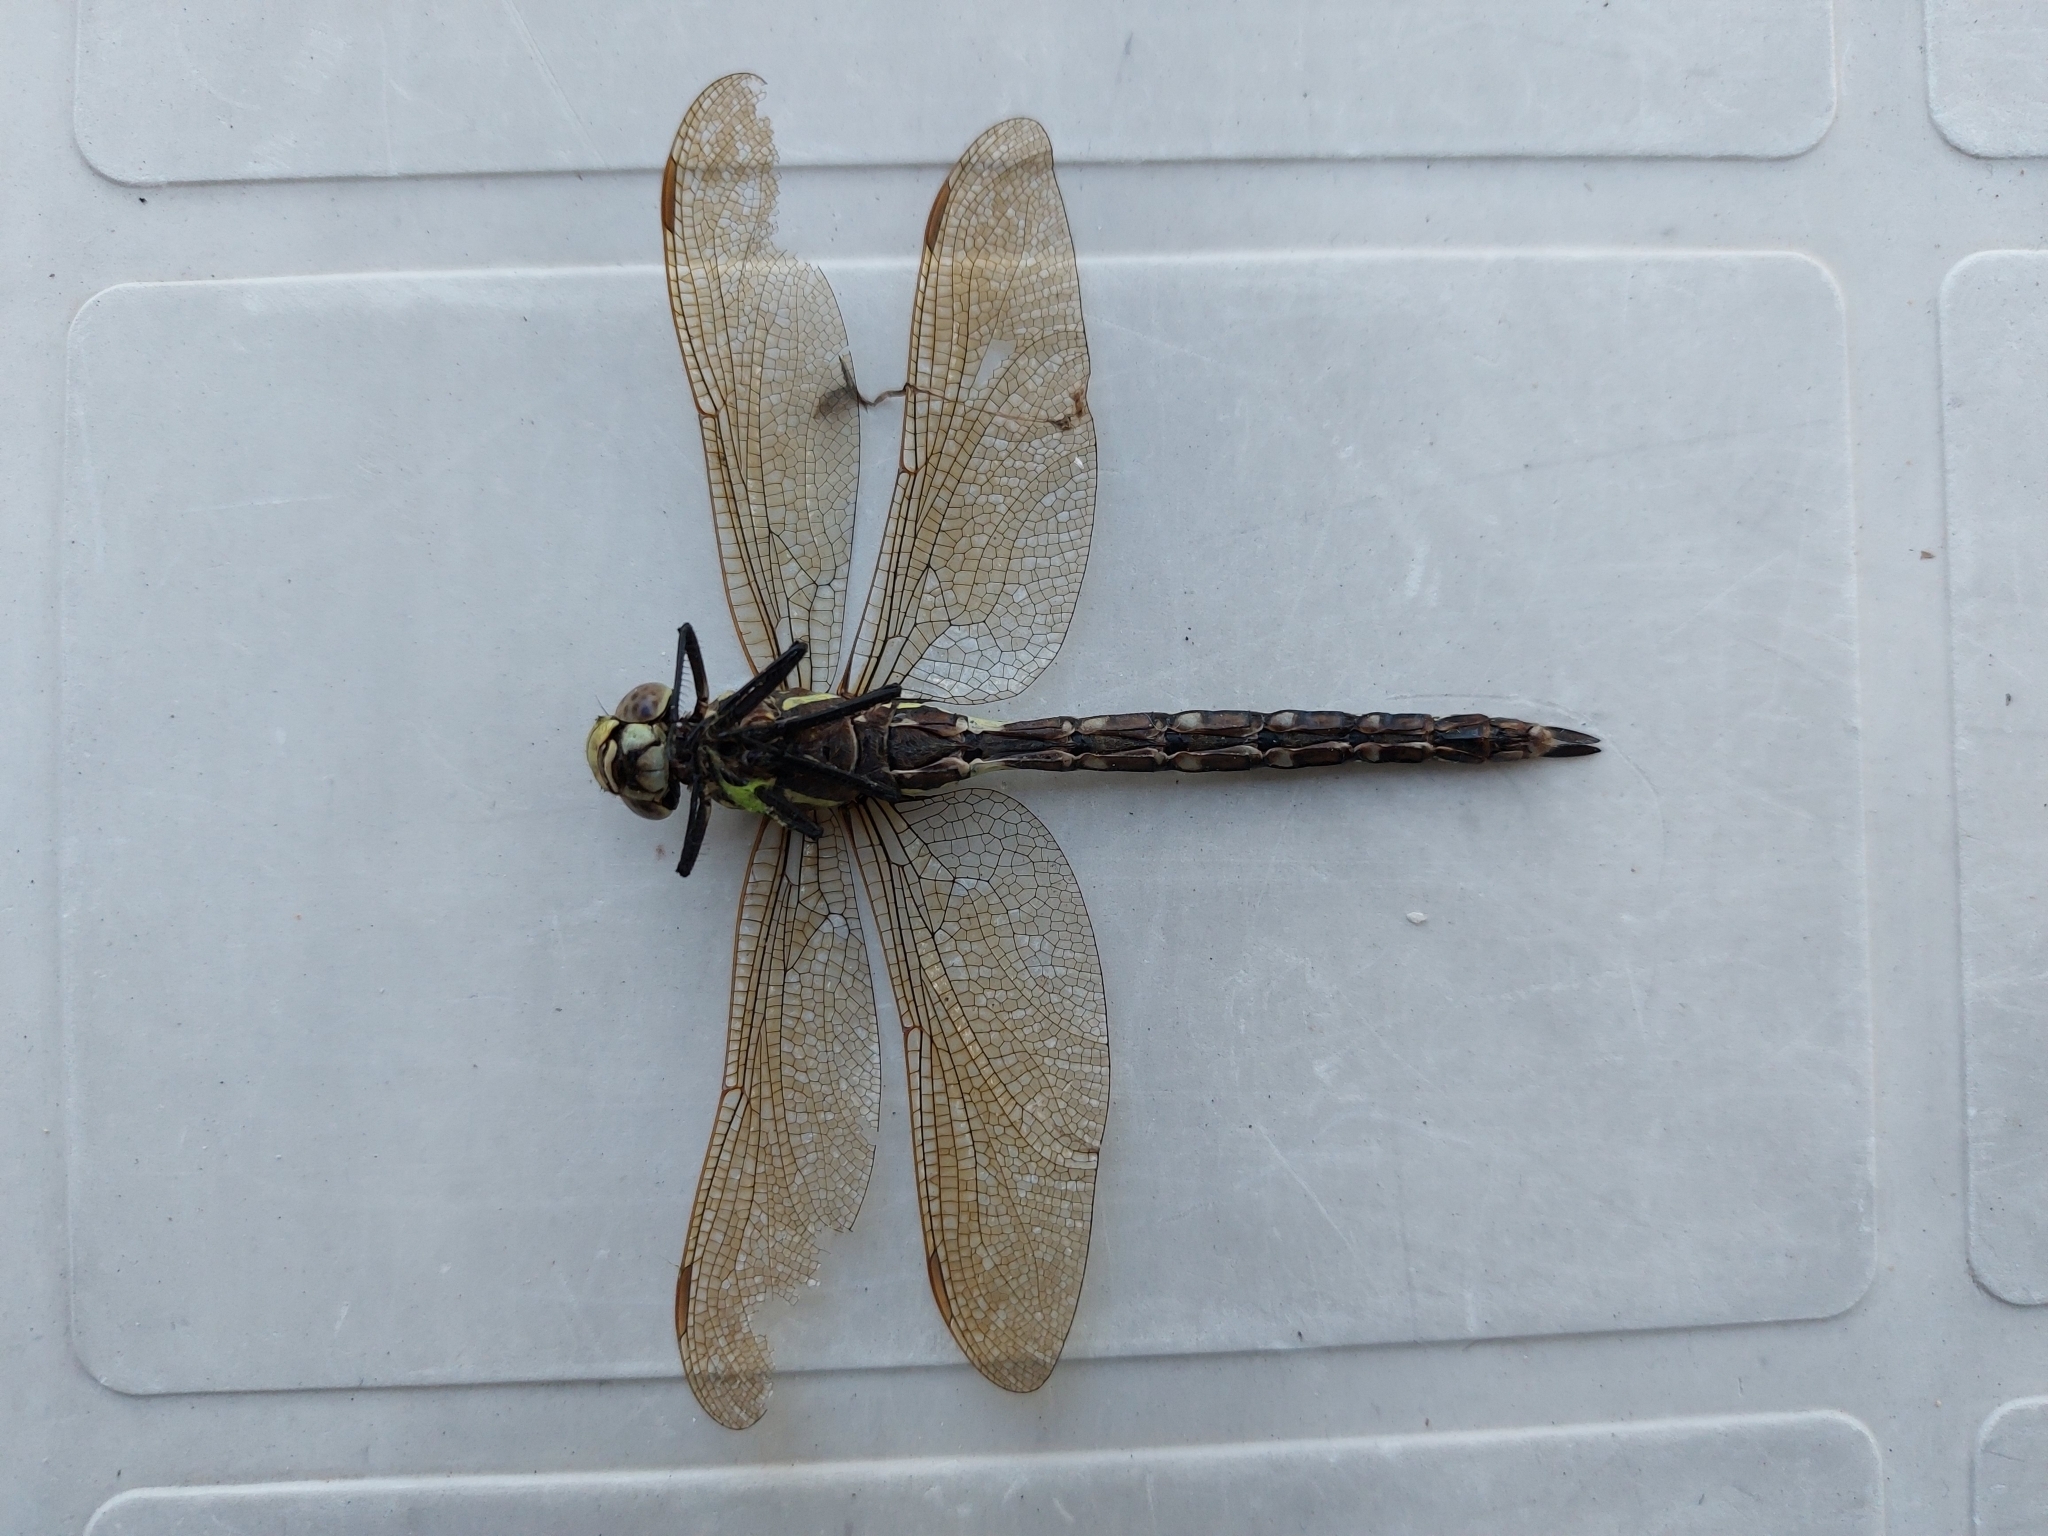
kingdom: Animalia
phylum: Arthropoda
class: Insecta
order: Odonata
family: Aeshnidae
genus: Aeshna
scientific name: Aeshna juncea
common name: Moorland hawker
